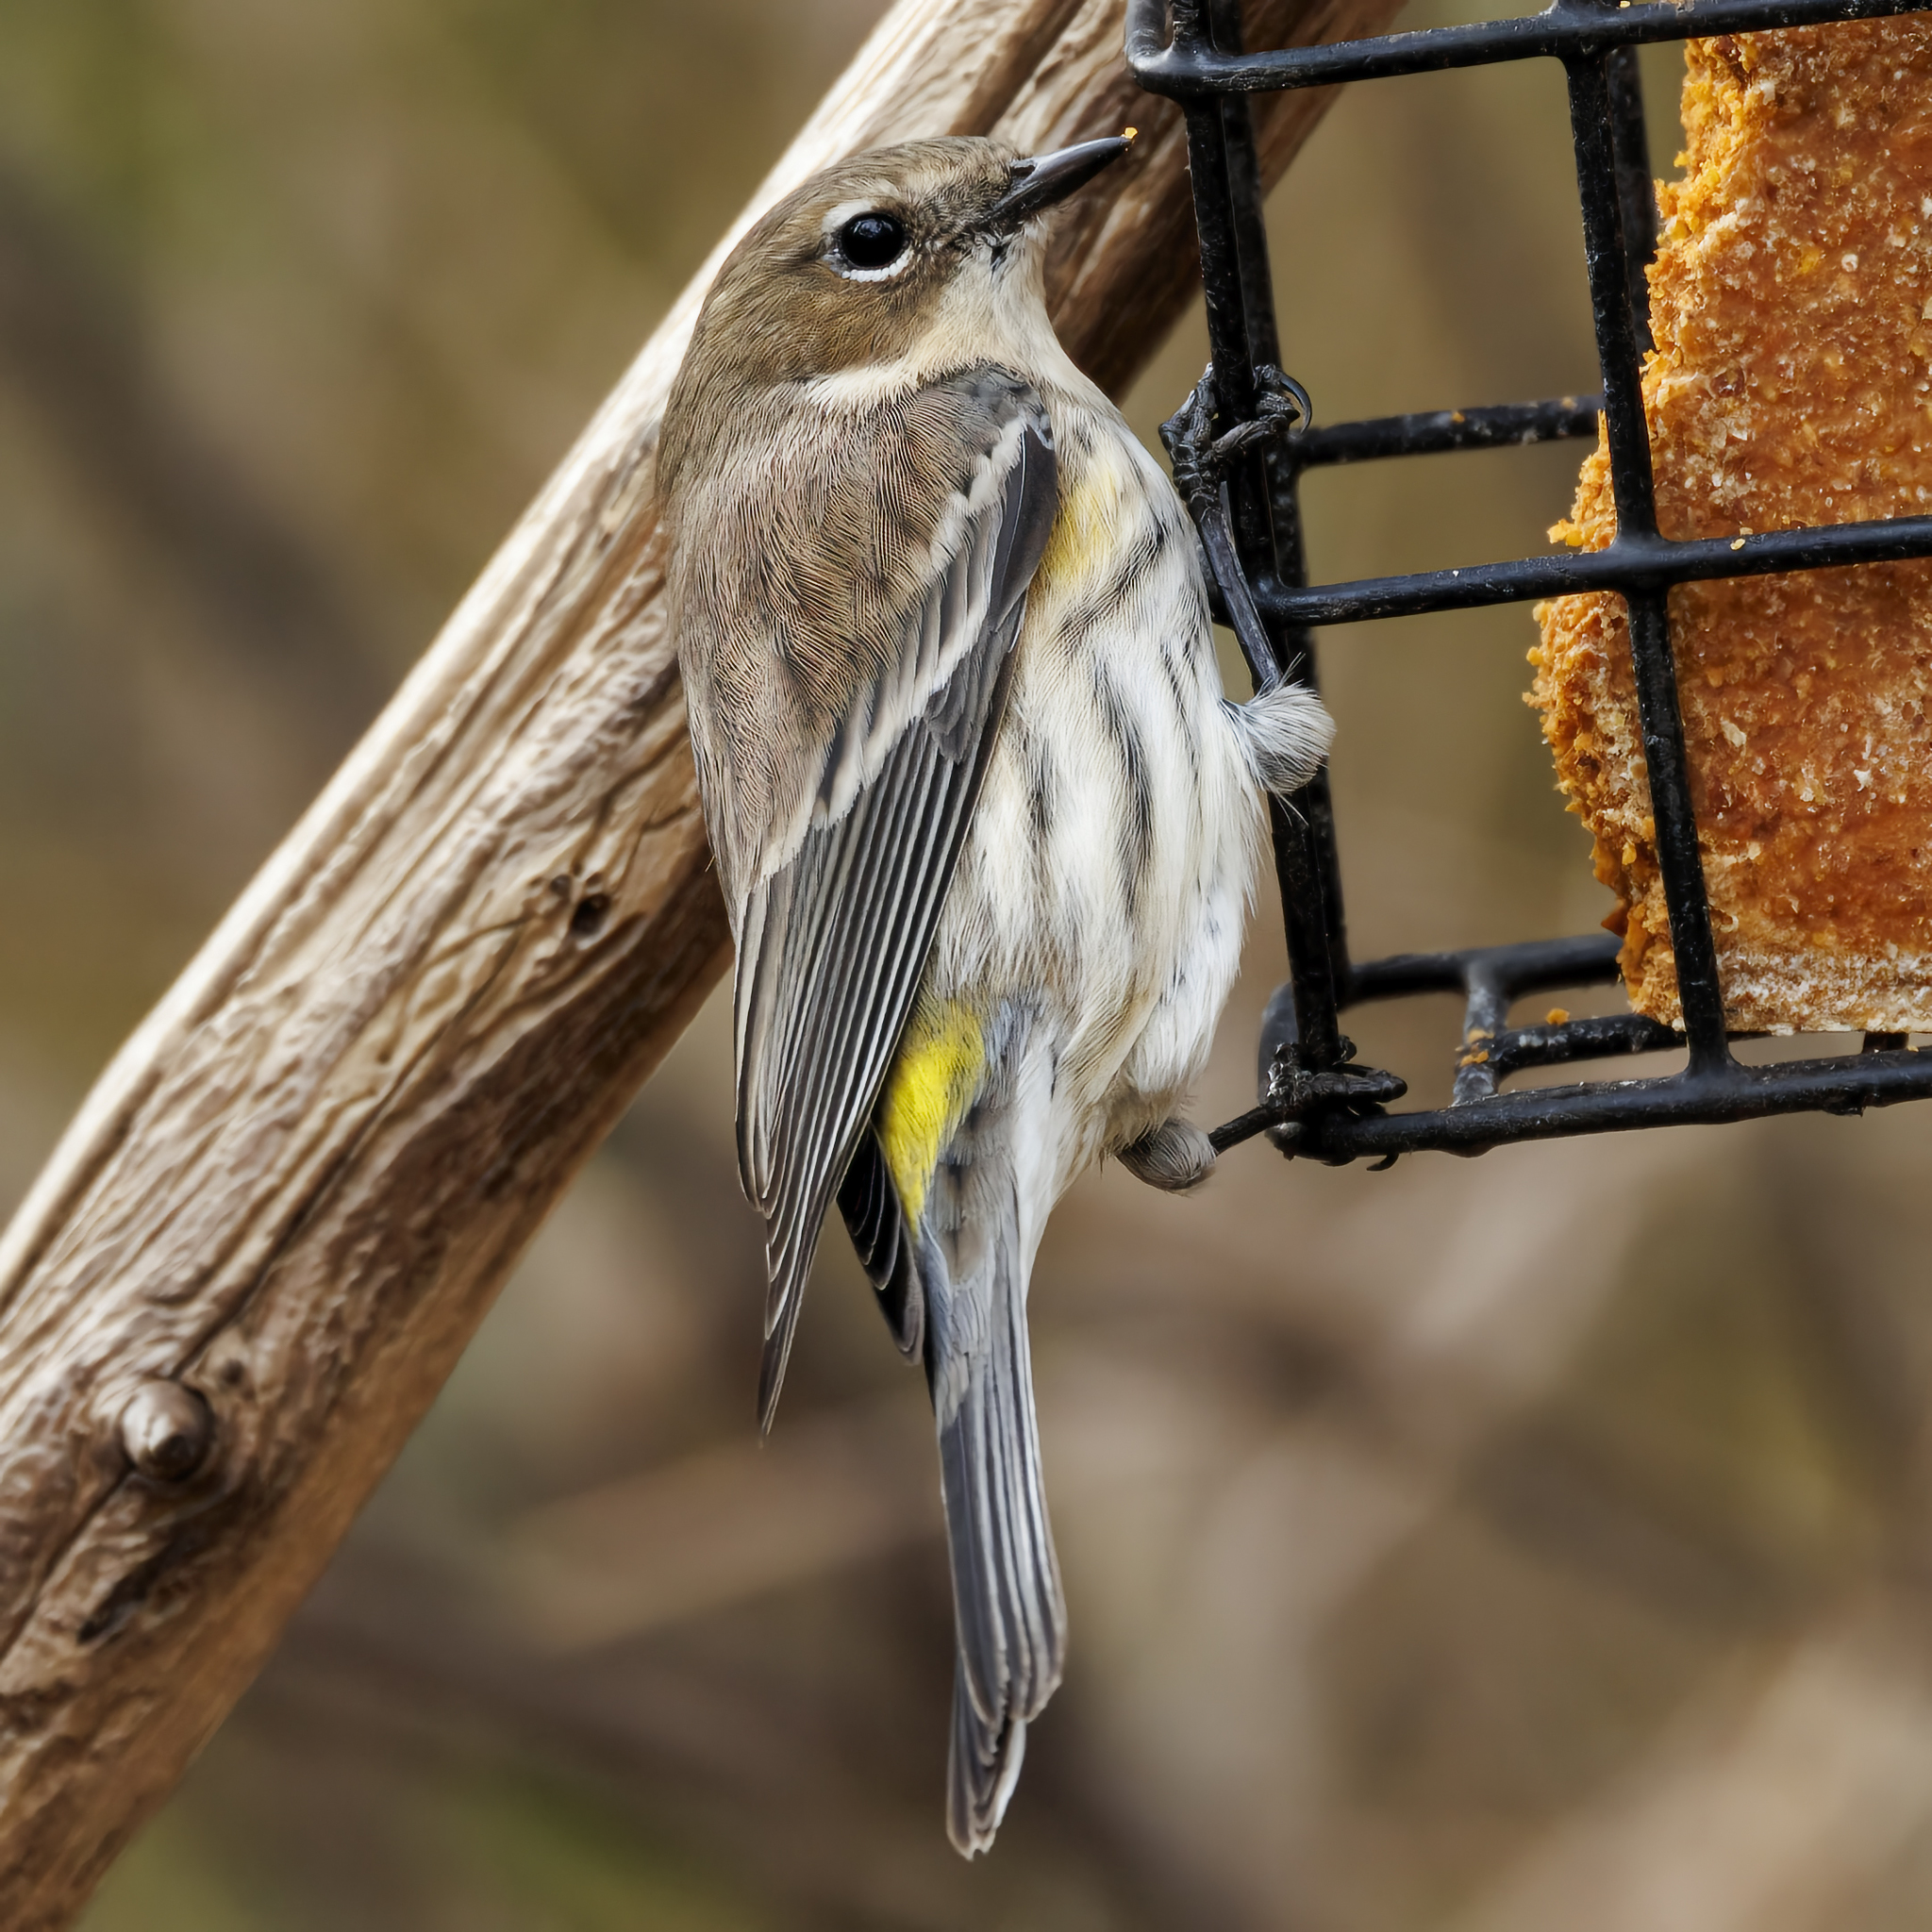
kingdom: Animalia
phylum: Chordata
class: Aves
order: Passeriformes
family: Parulidae
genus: Setophaga
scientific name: Setophaga coronata
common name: Myrtle warbler
